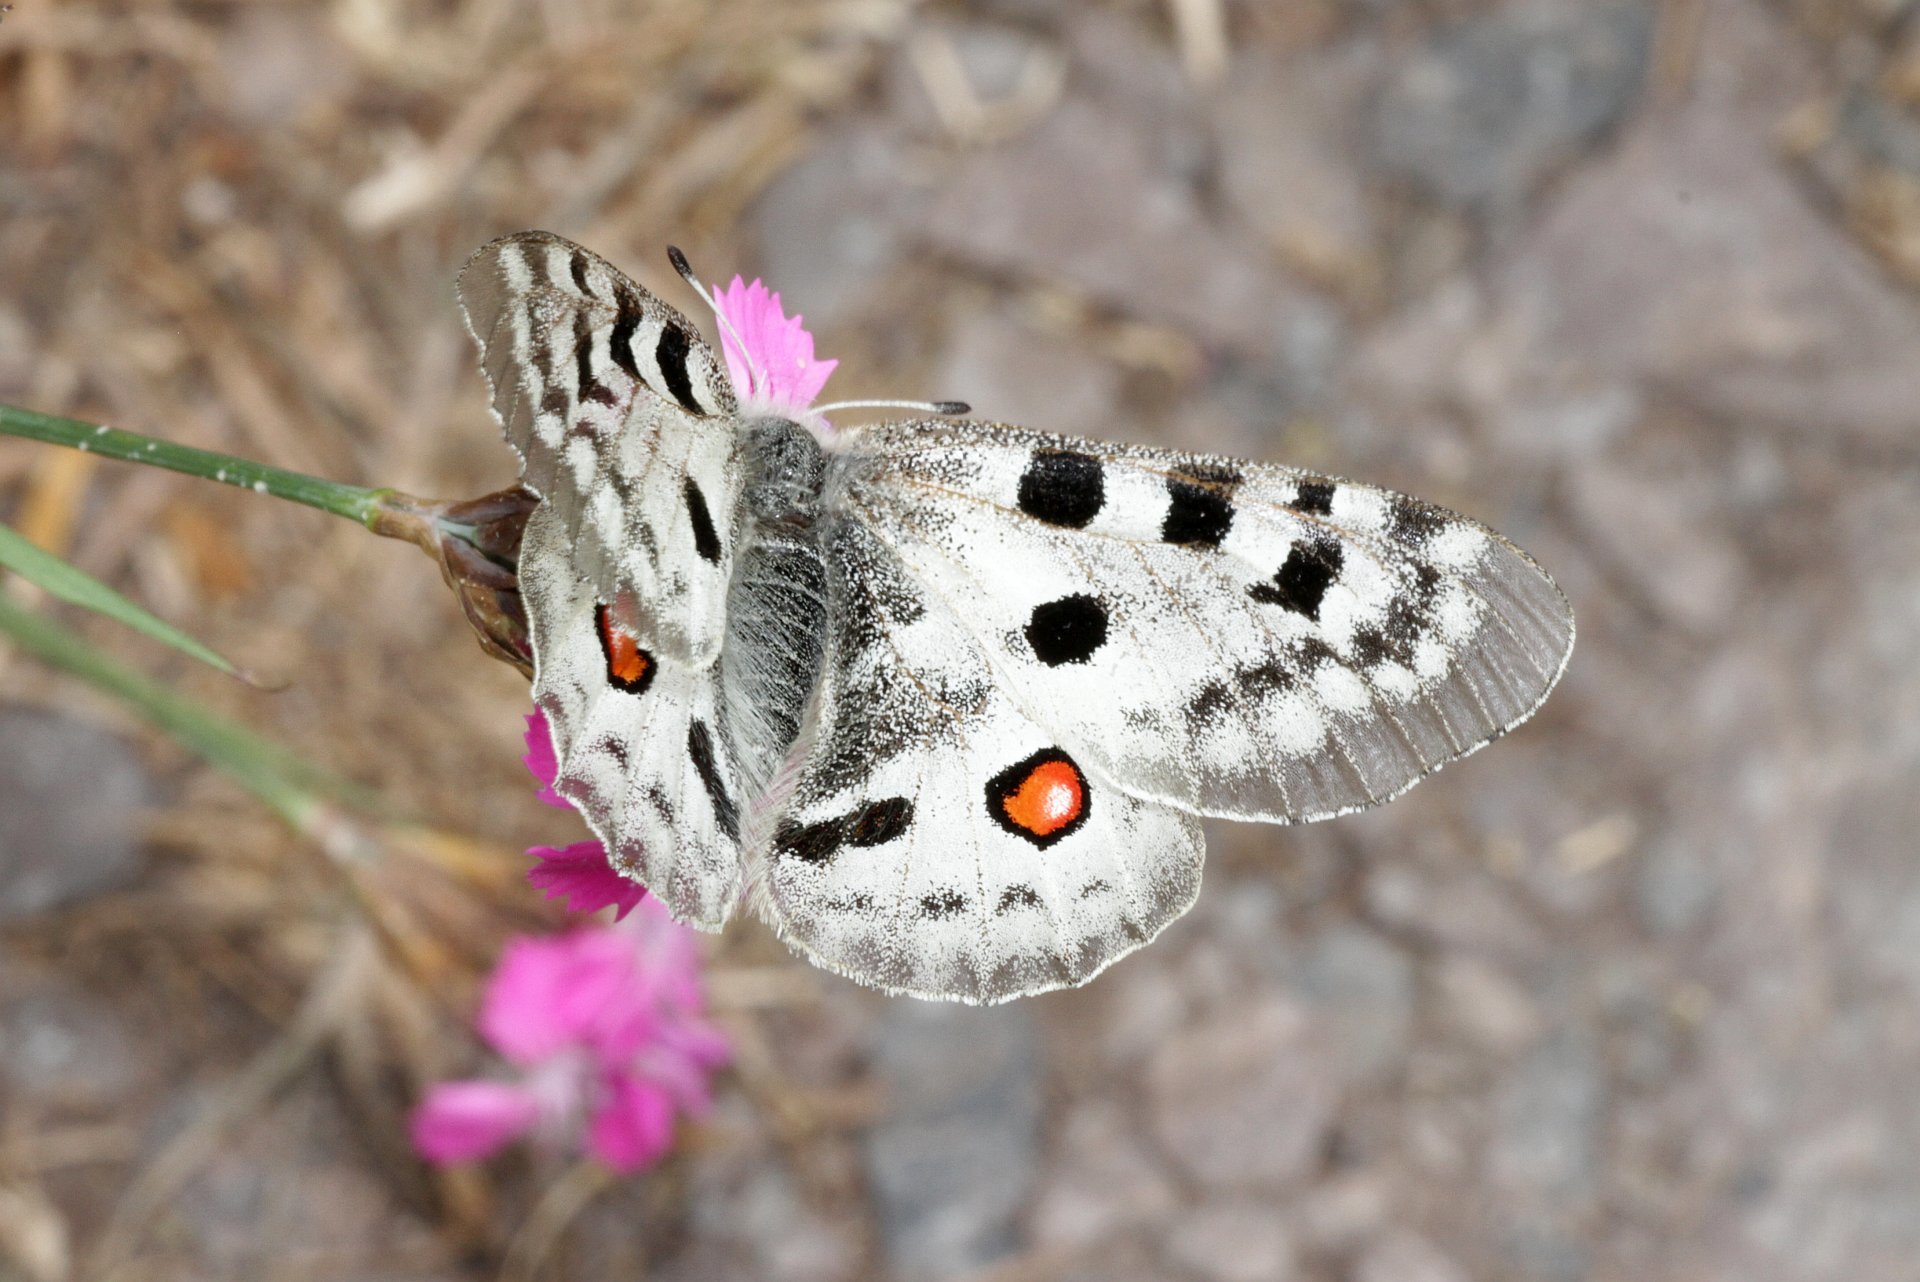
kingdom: Animalia
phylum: Arthropoda
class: Insecta
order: Lepidoptera
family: Papilionidae
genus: Parnassius
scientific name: Parnassius apollo
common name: Apollo
